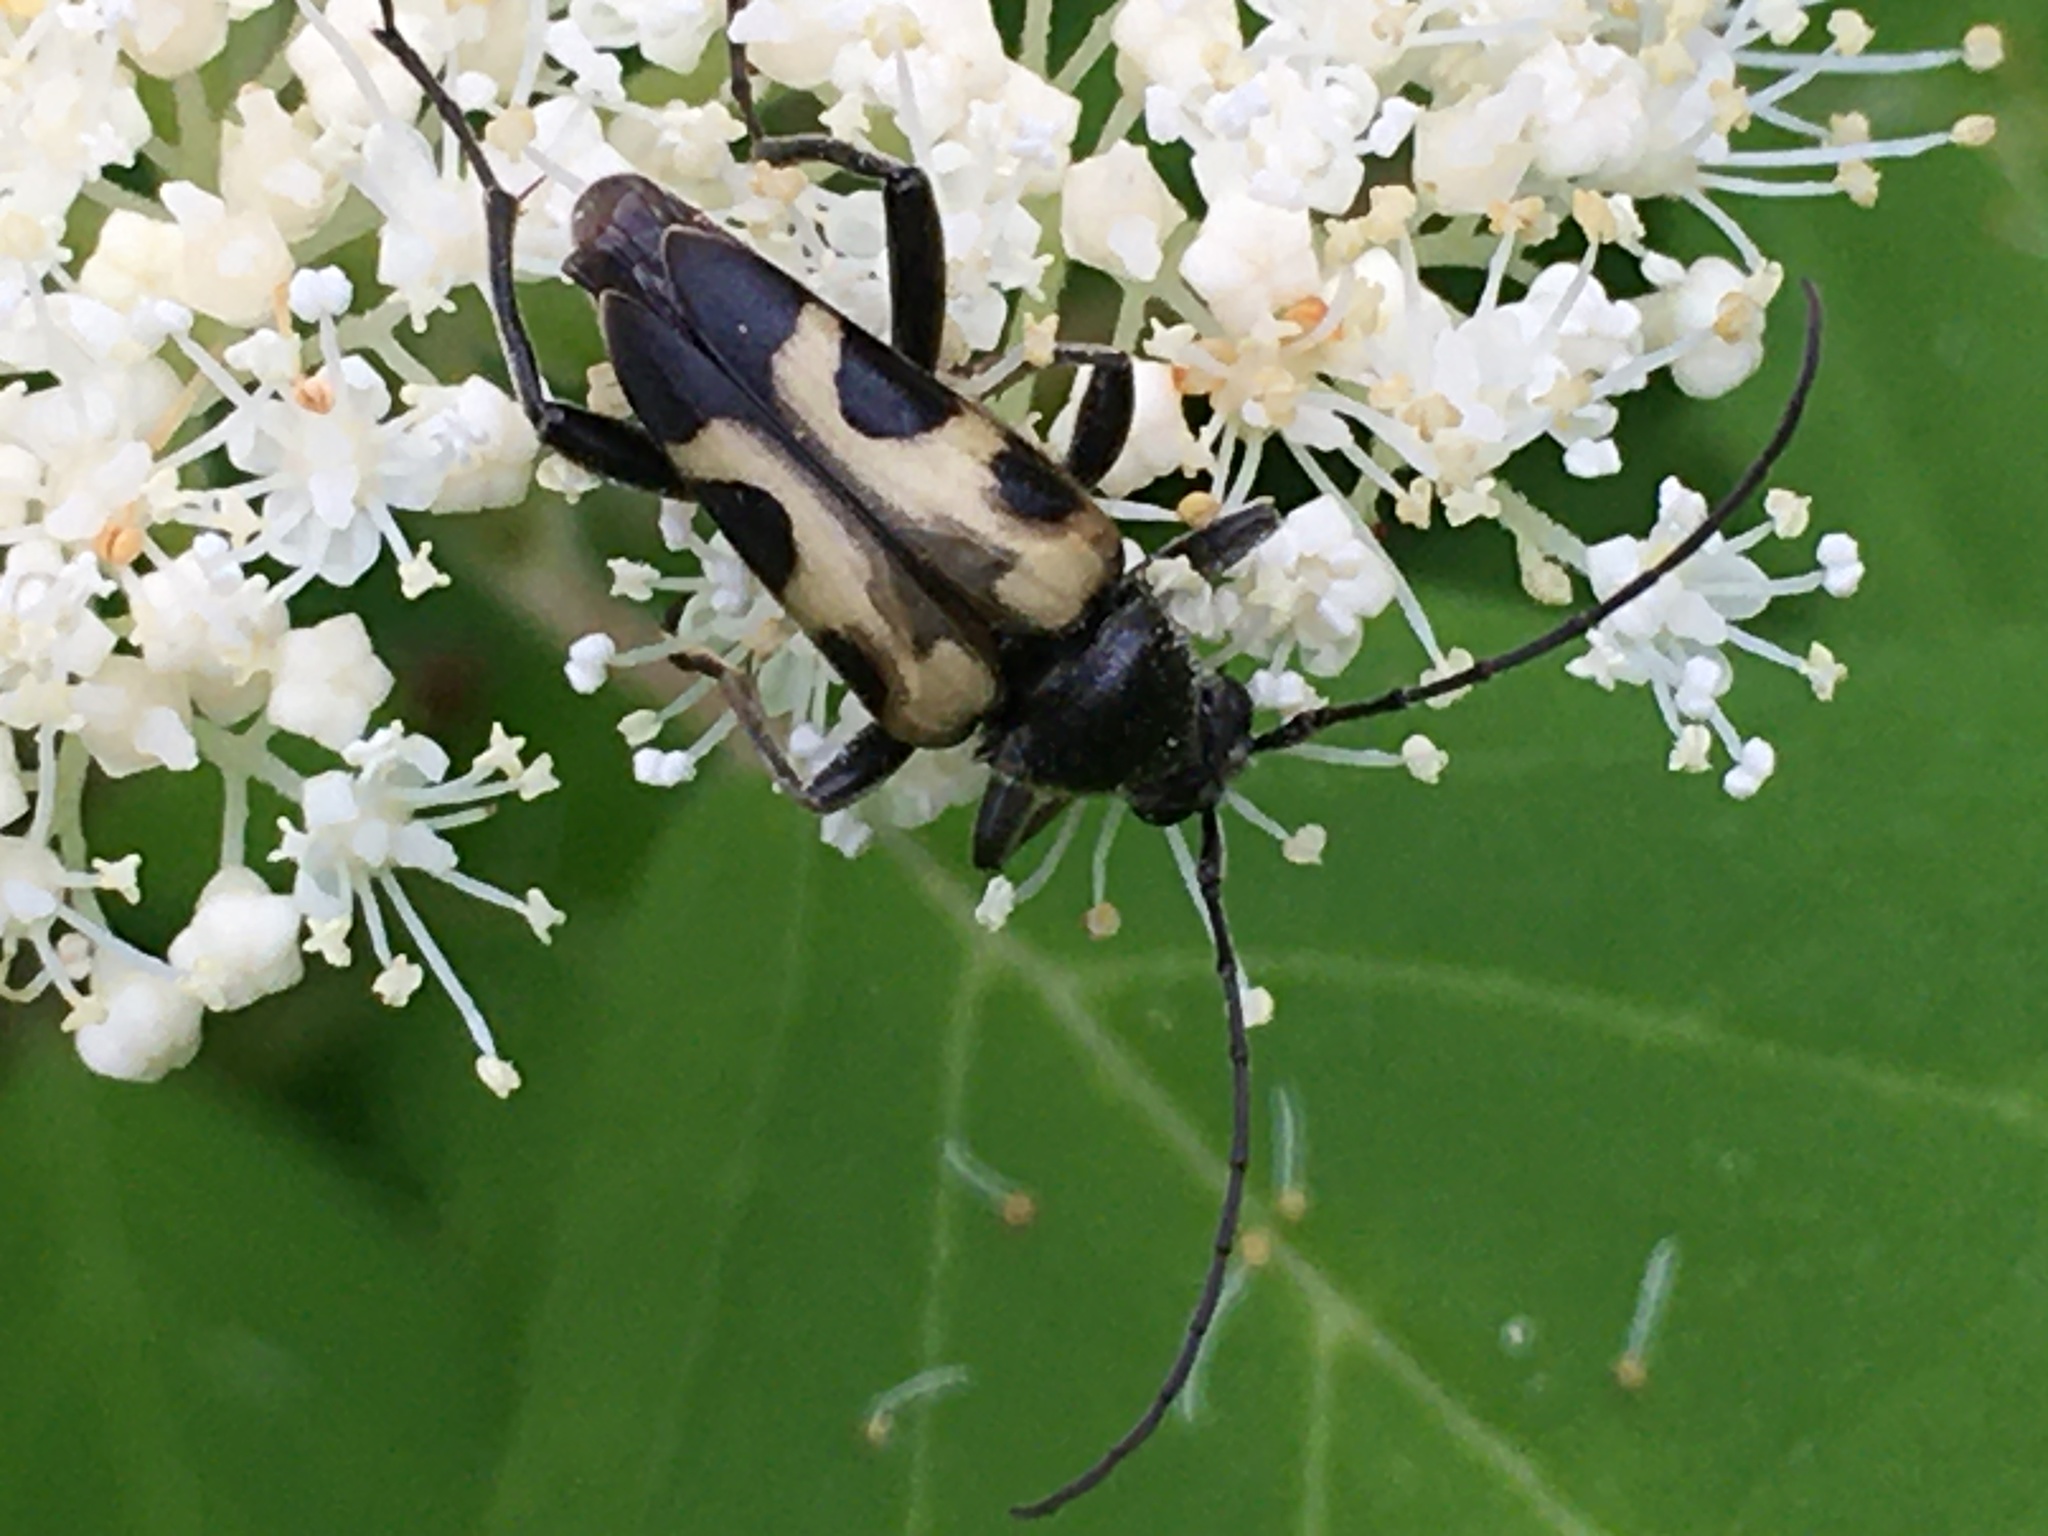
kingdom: Animalia
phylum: Arthropoda
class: Insecta
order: Coleoptera
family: Cerambycidae
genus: Judolia
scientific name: Judolia cordifera
